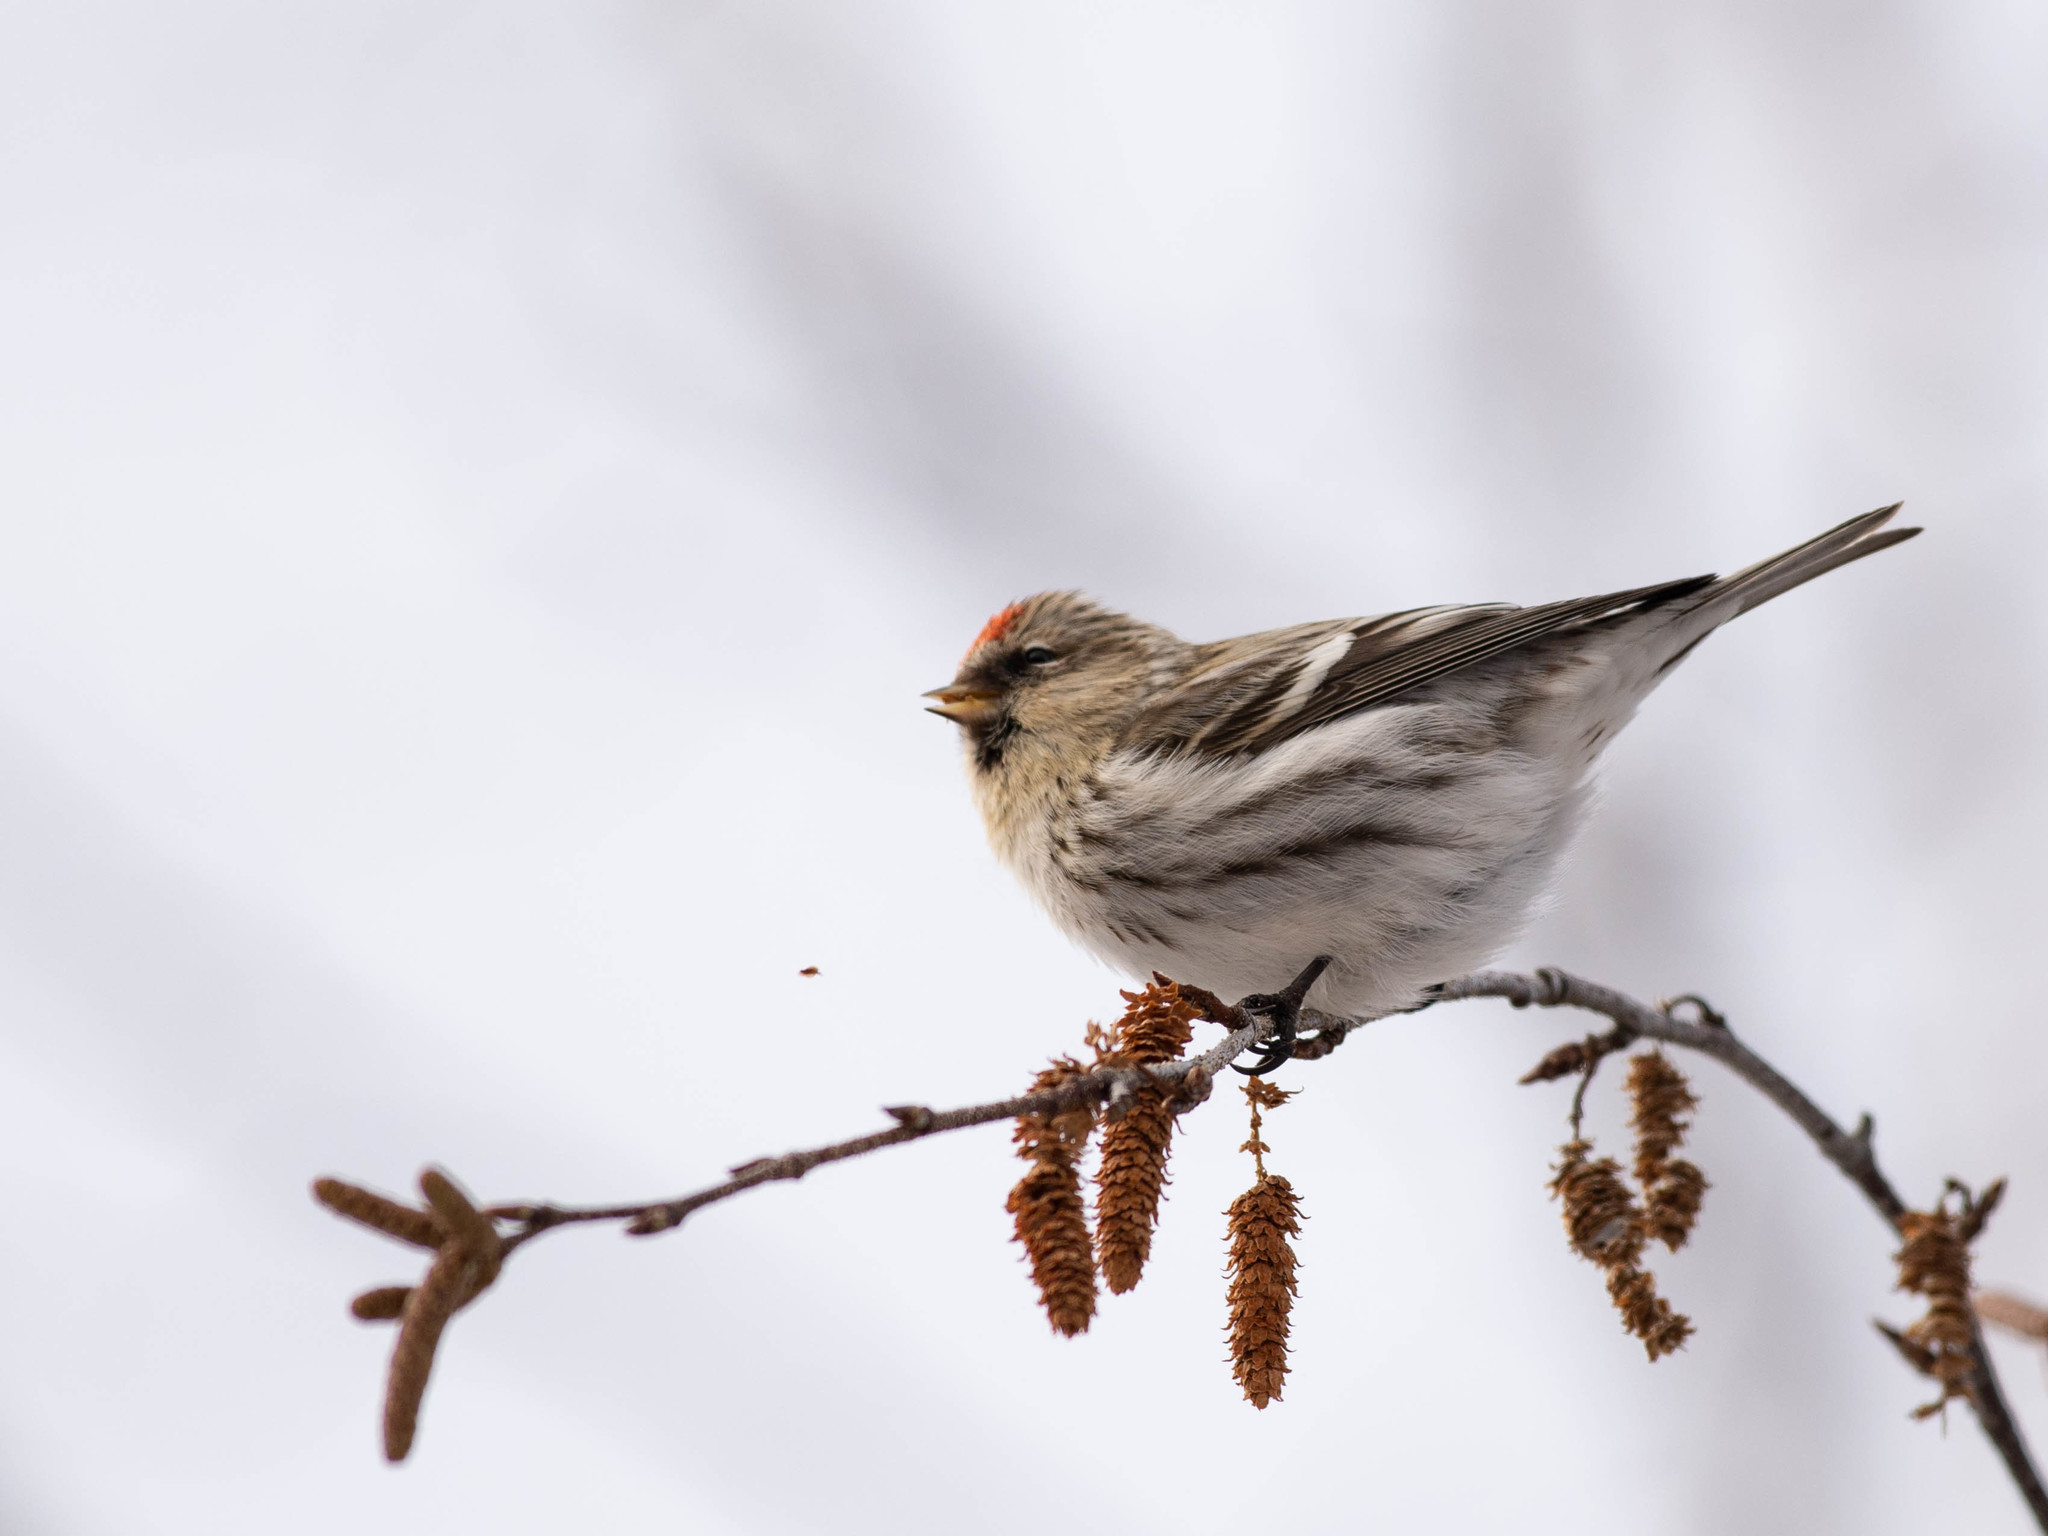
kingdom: Animalia
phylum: Chordata
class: Aves
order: Passeriformes
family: Fringillidae
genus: Acanthis
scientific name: Acanthis flammea
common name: Common redpoll
